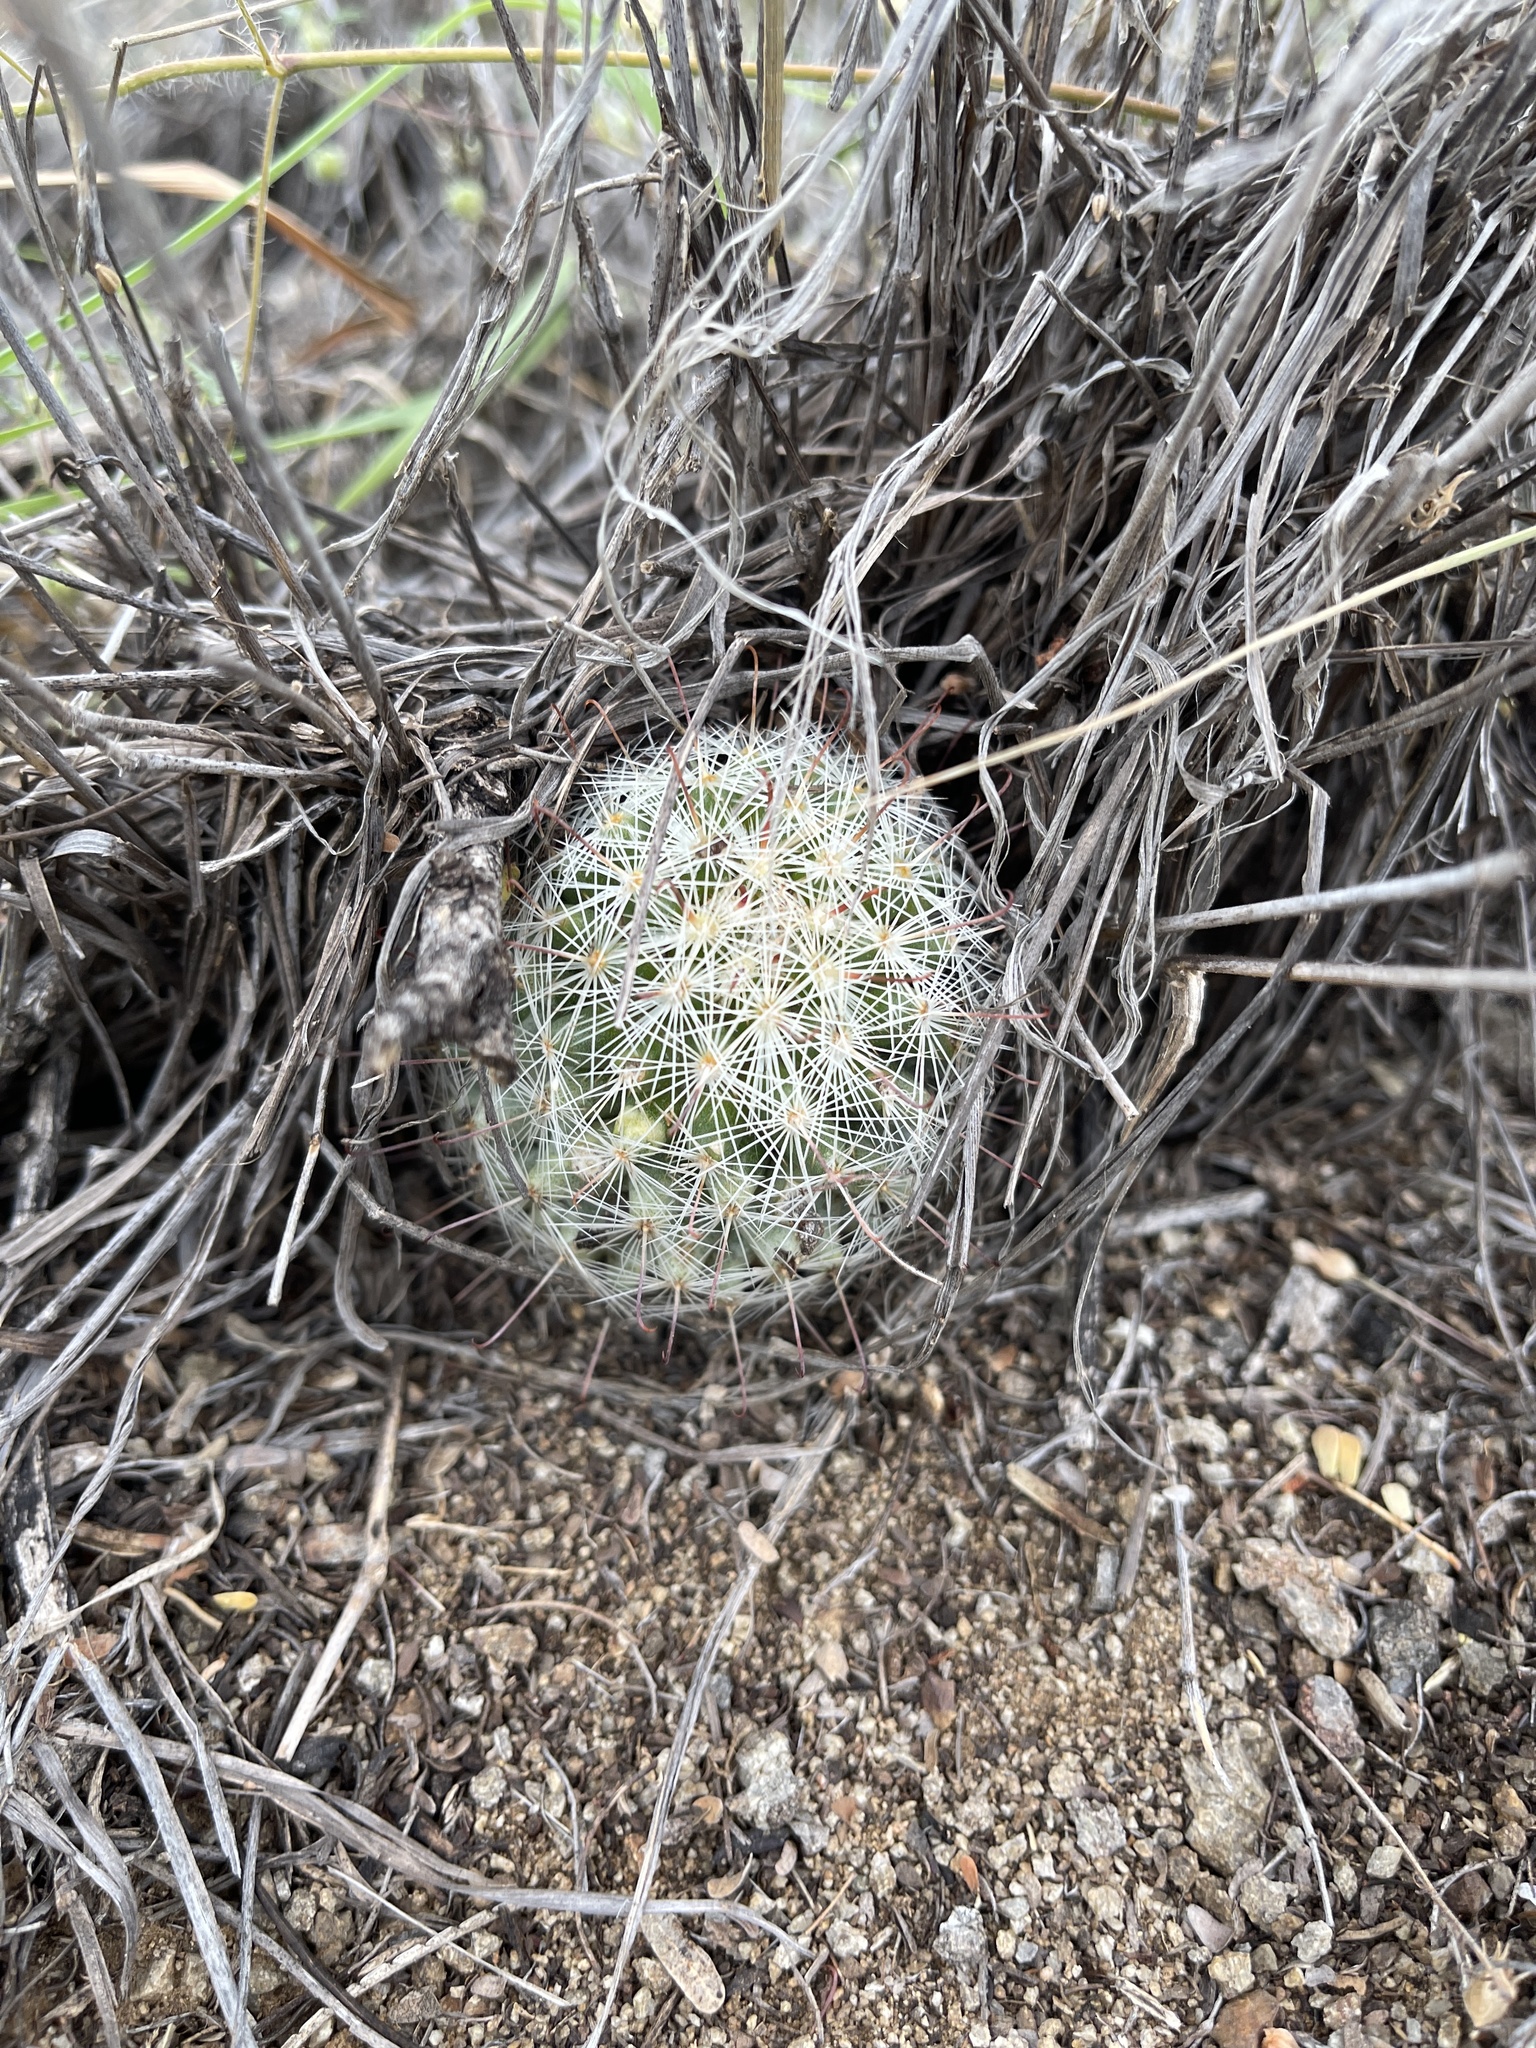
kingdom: Plantae
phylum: Tracheophyta
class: Magnoliopsida
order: Caryophyllales
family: Cactaceae
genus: Cochemiea
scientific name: Cochemiea grahamii
